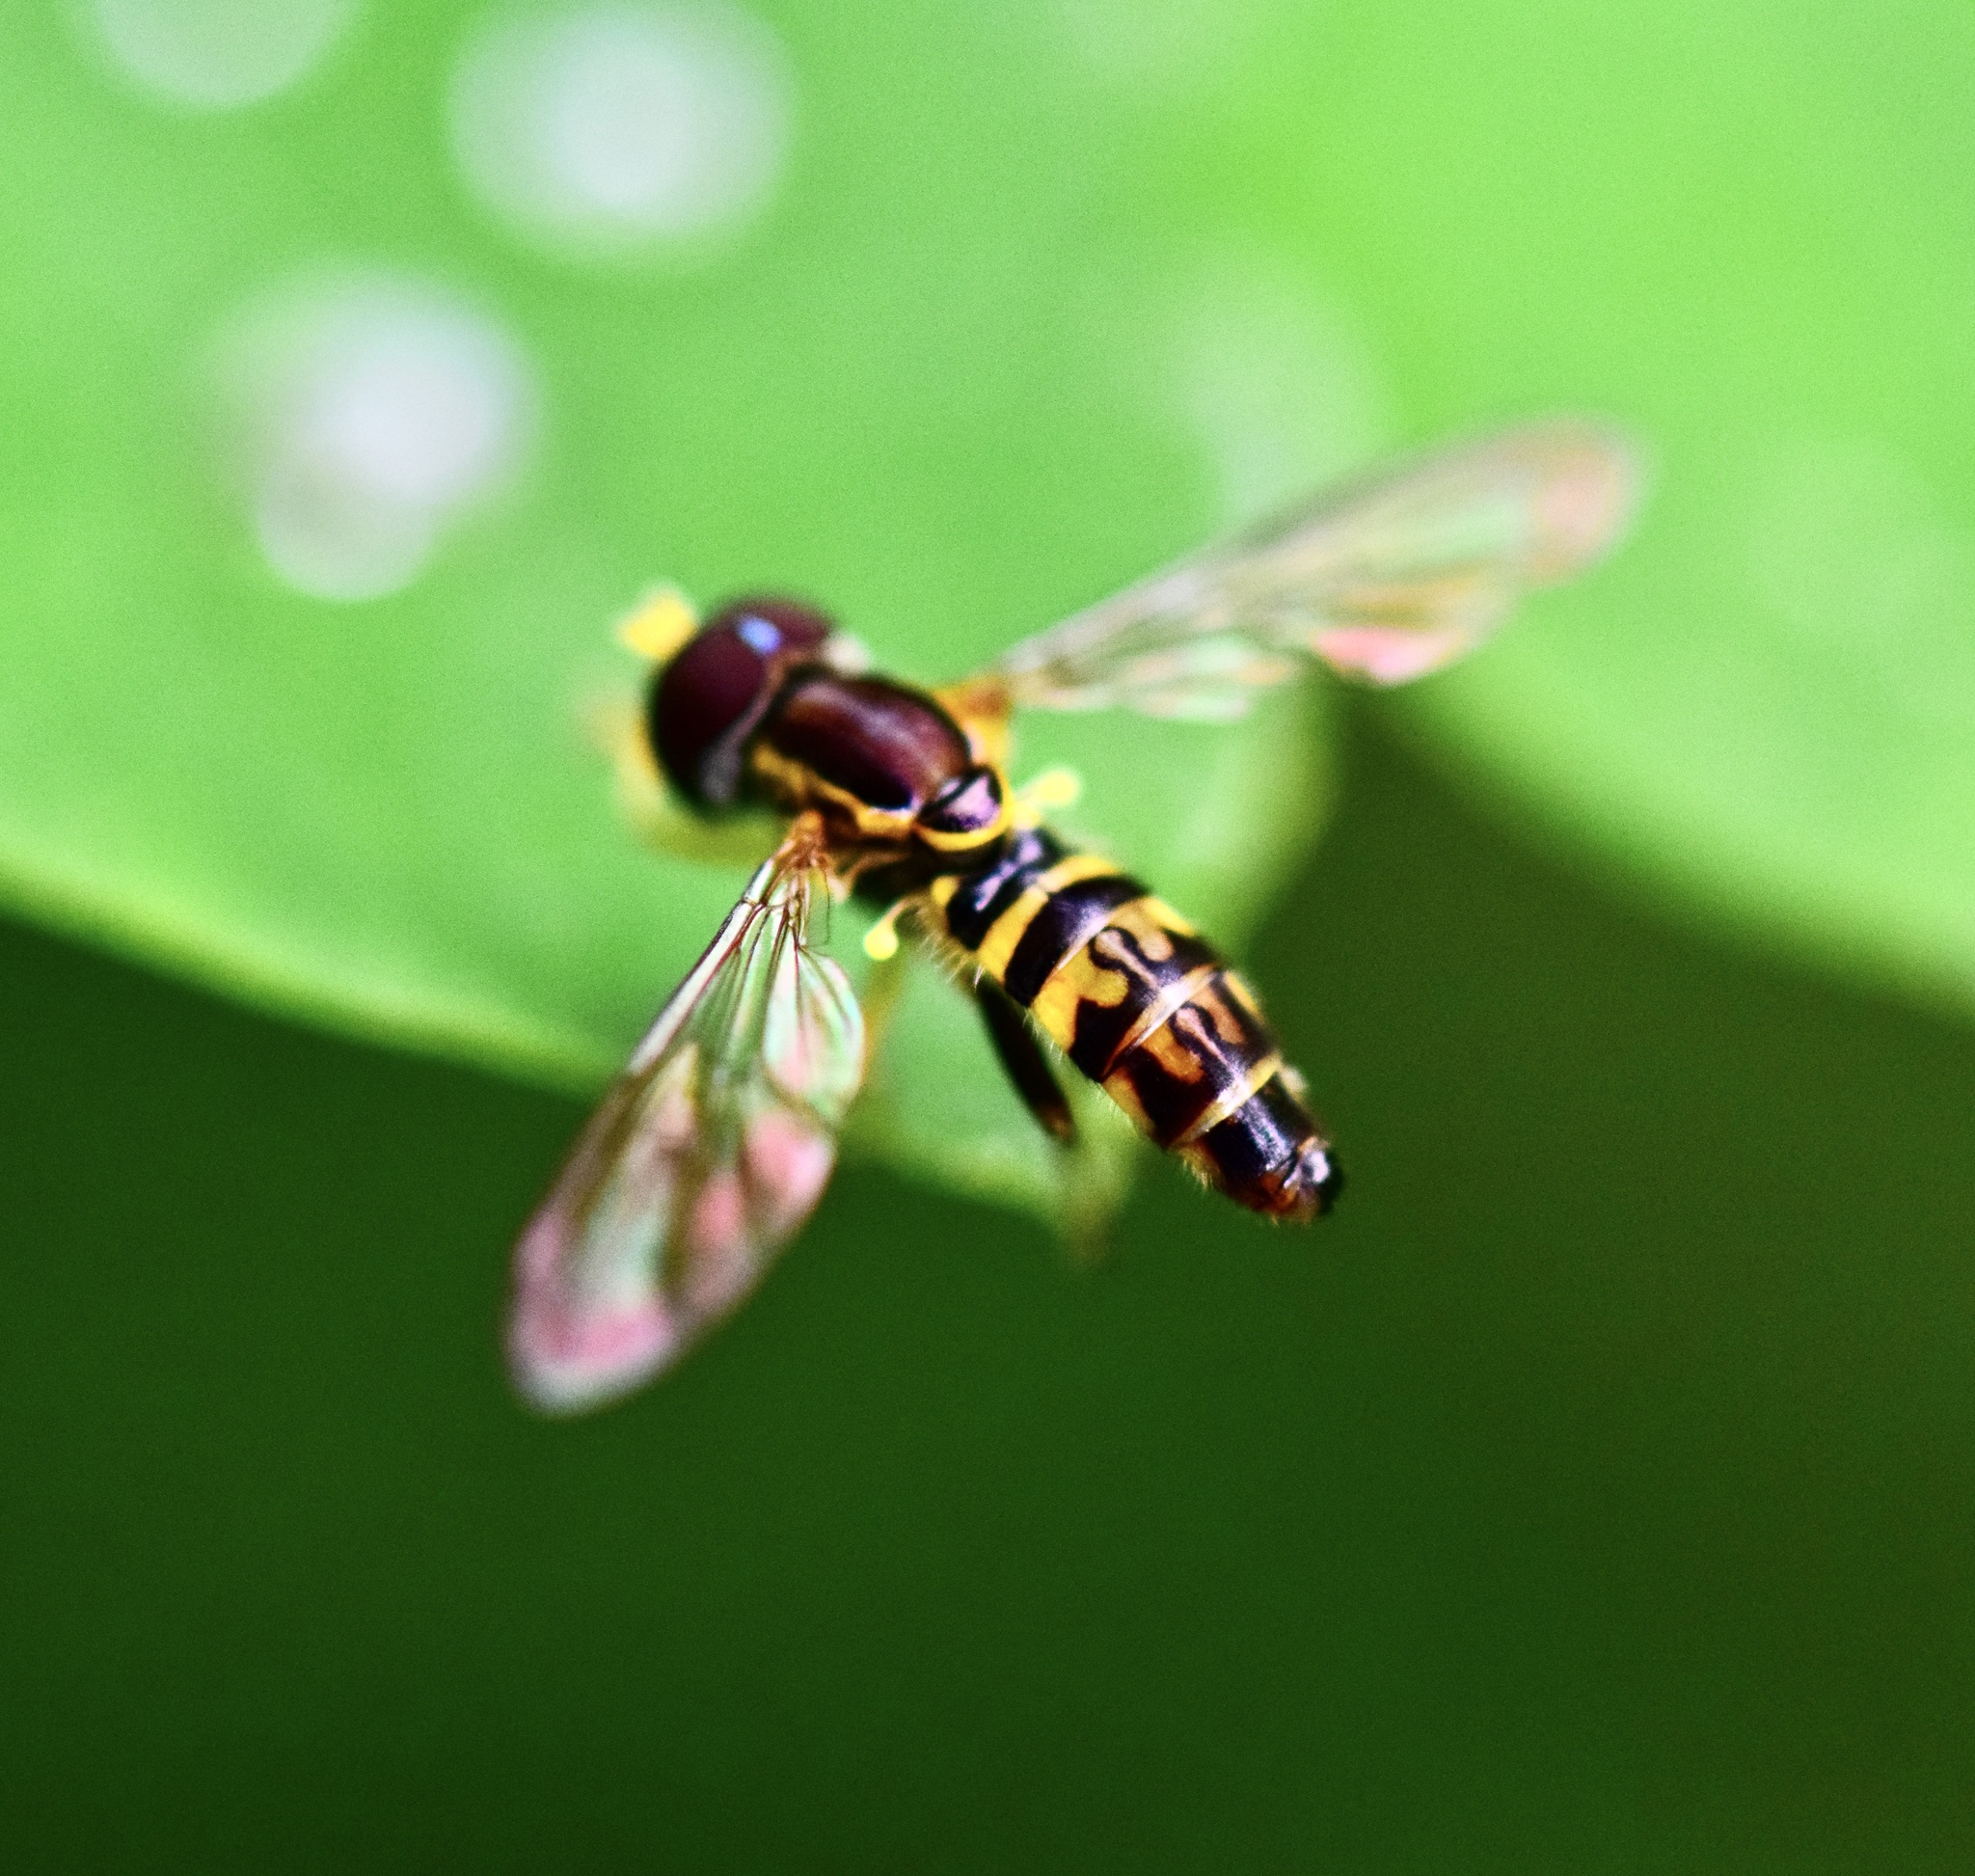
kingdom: Animalia
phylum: Arthropoda
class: Insecta
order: Diptera
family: Syrphidae
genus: Toxomerus
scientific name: Toxomerus geminatus
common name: Eastern calligrapher
